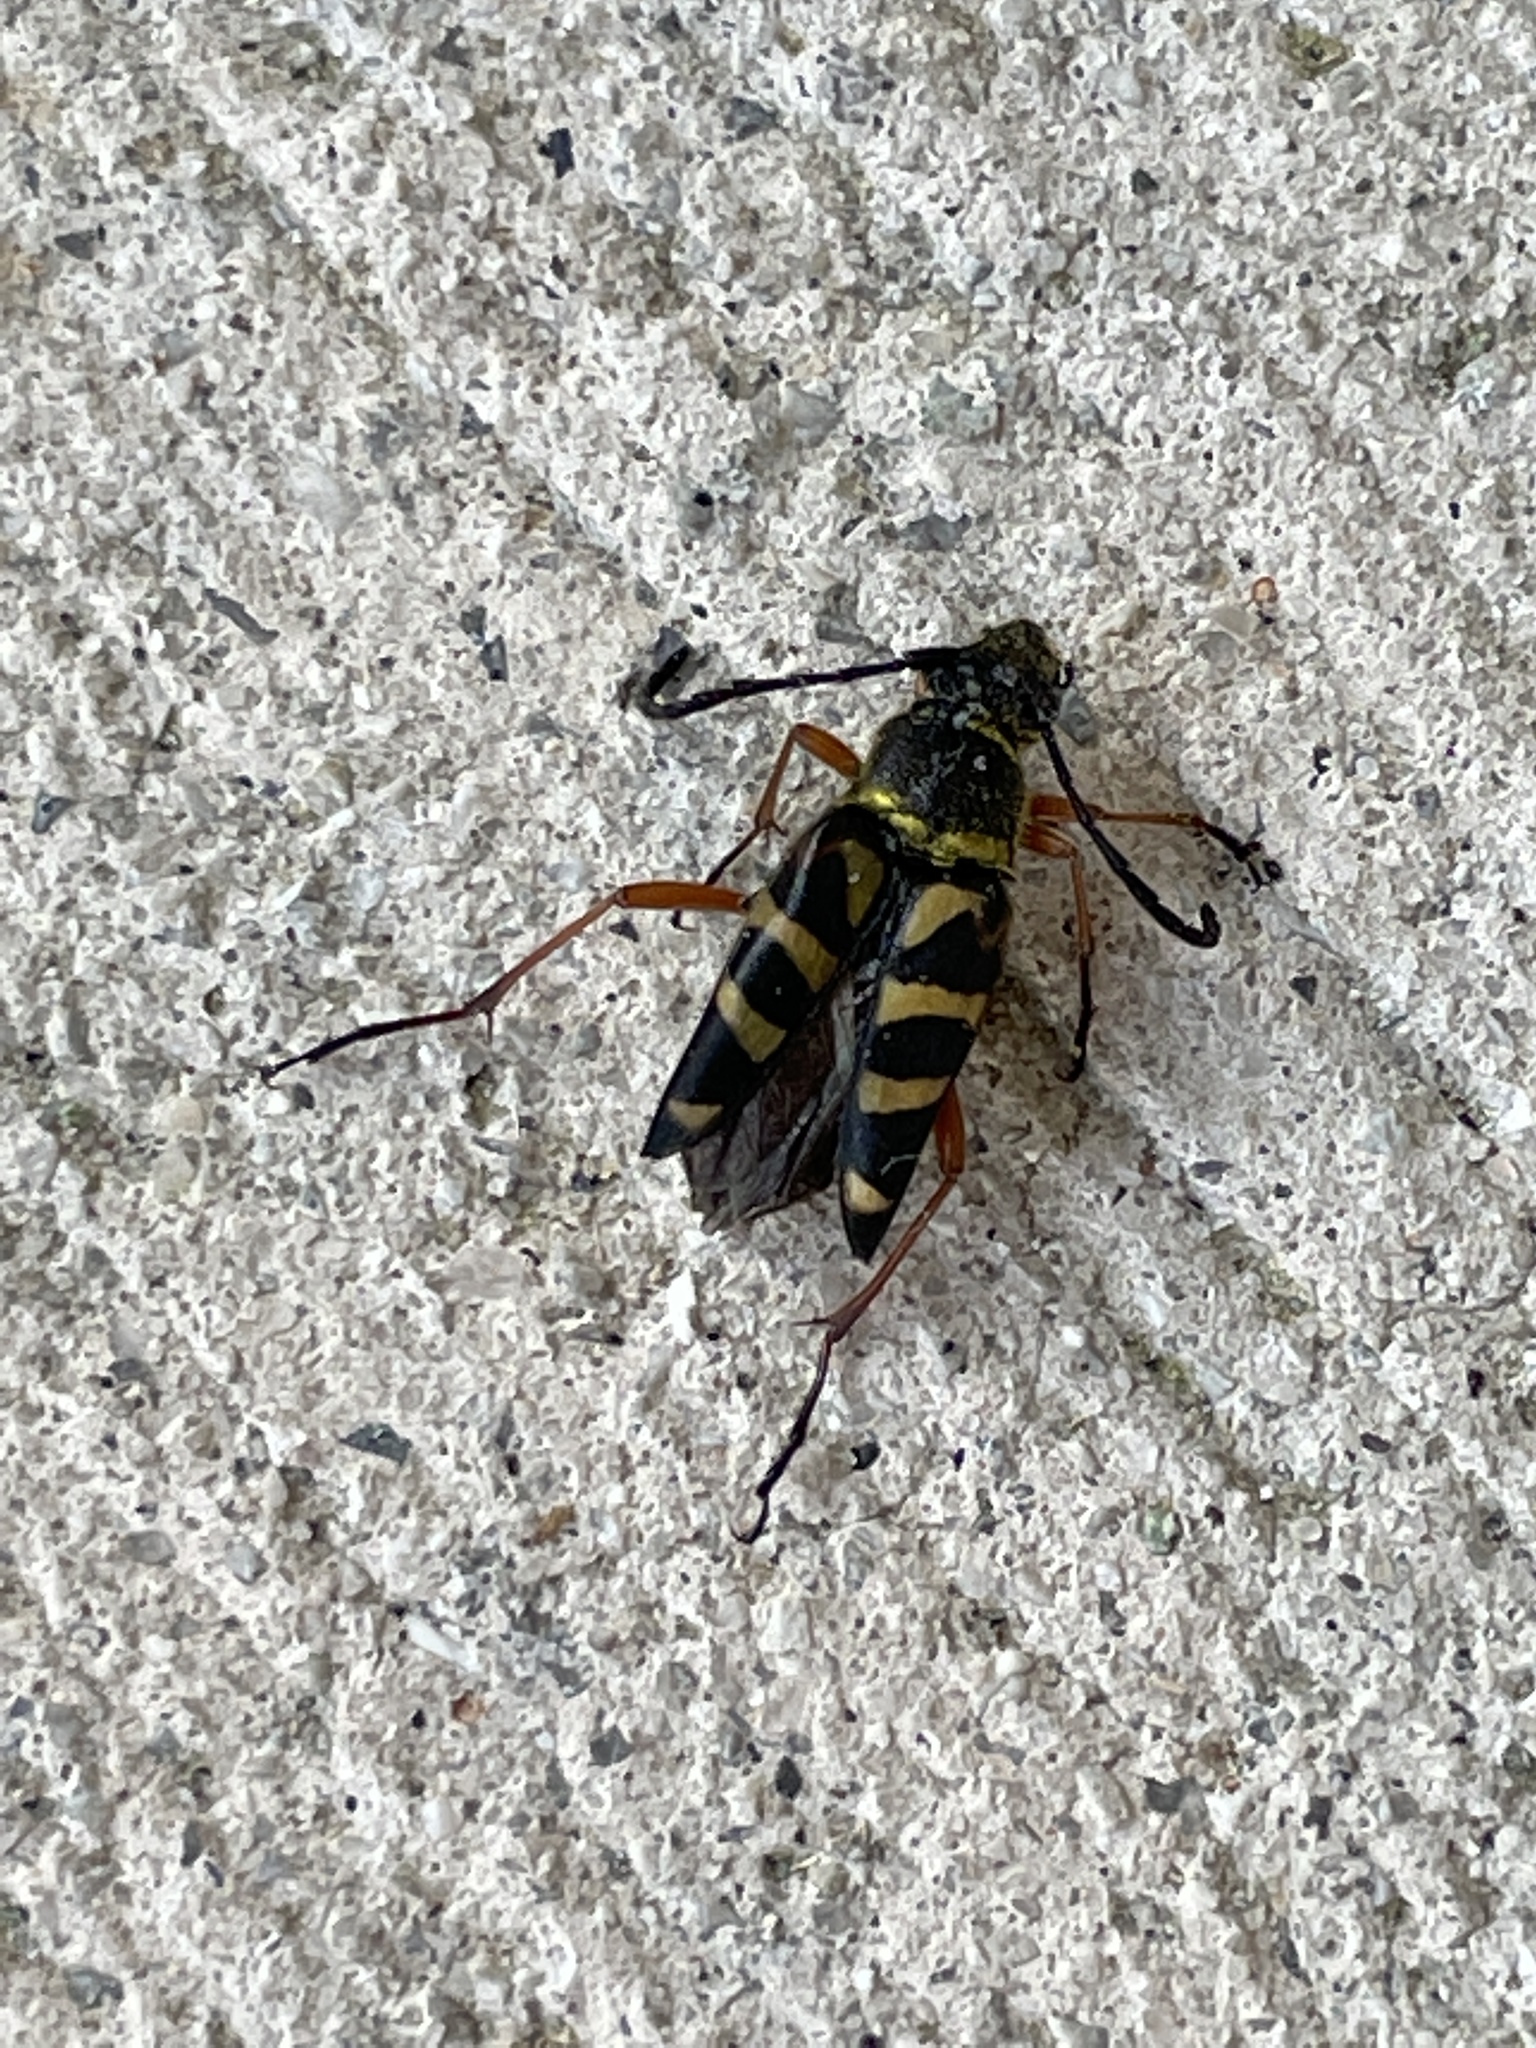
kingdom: Animalia
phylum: Arthropoda
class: Insecta
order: Coleoptera
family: Cerambycidae
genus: Typocerus
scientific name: Typocerus zebra
